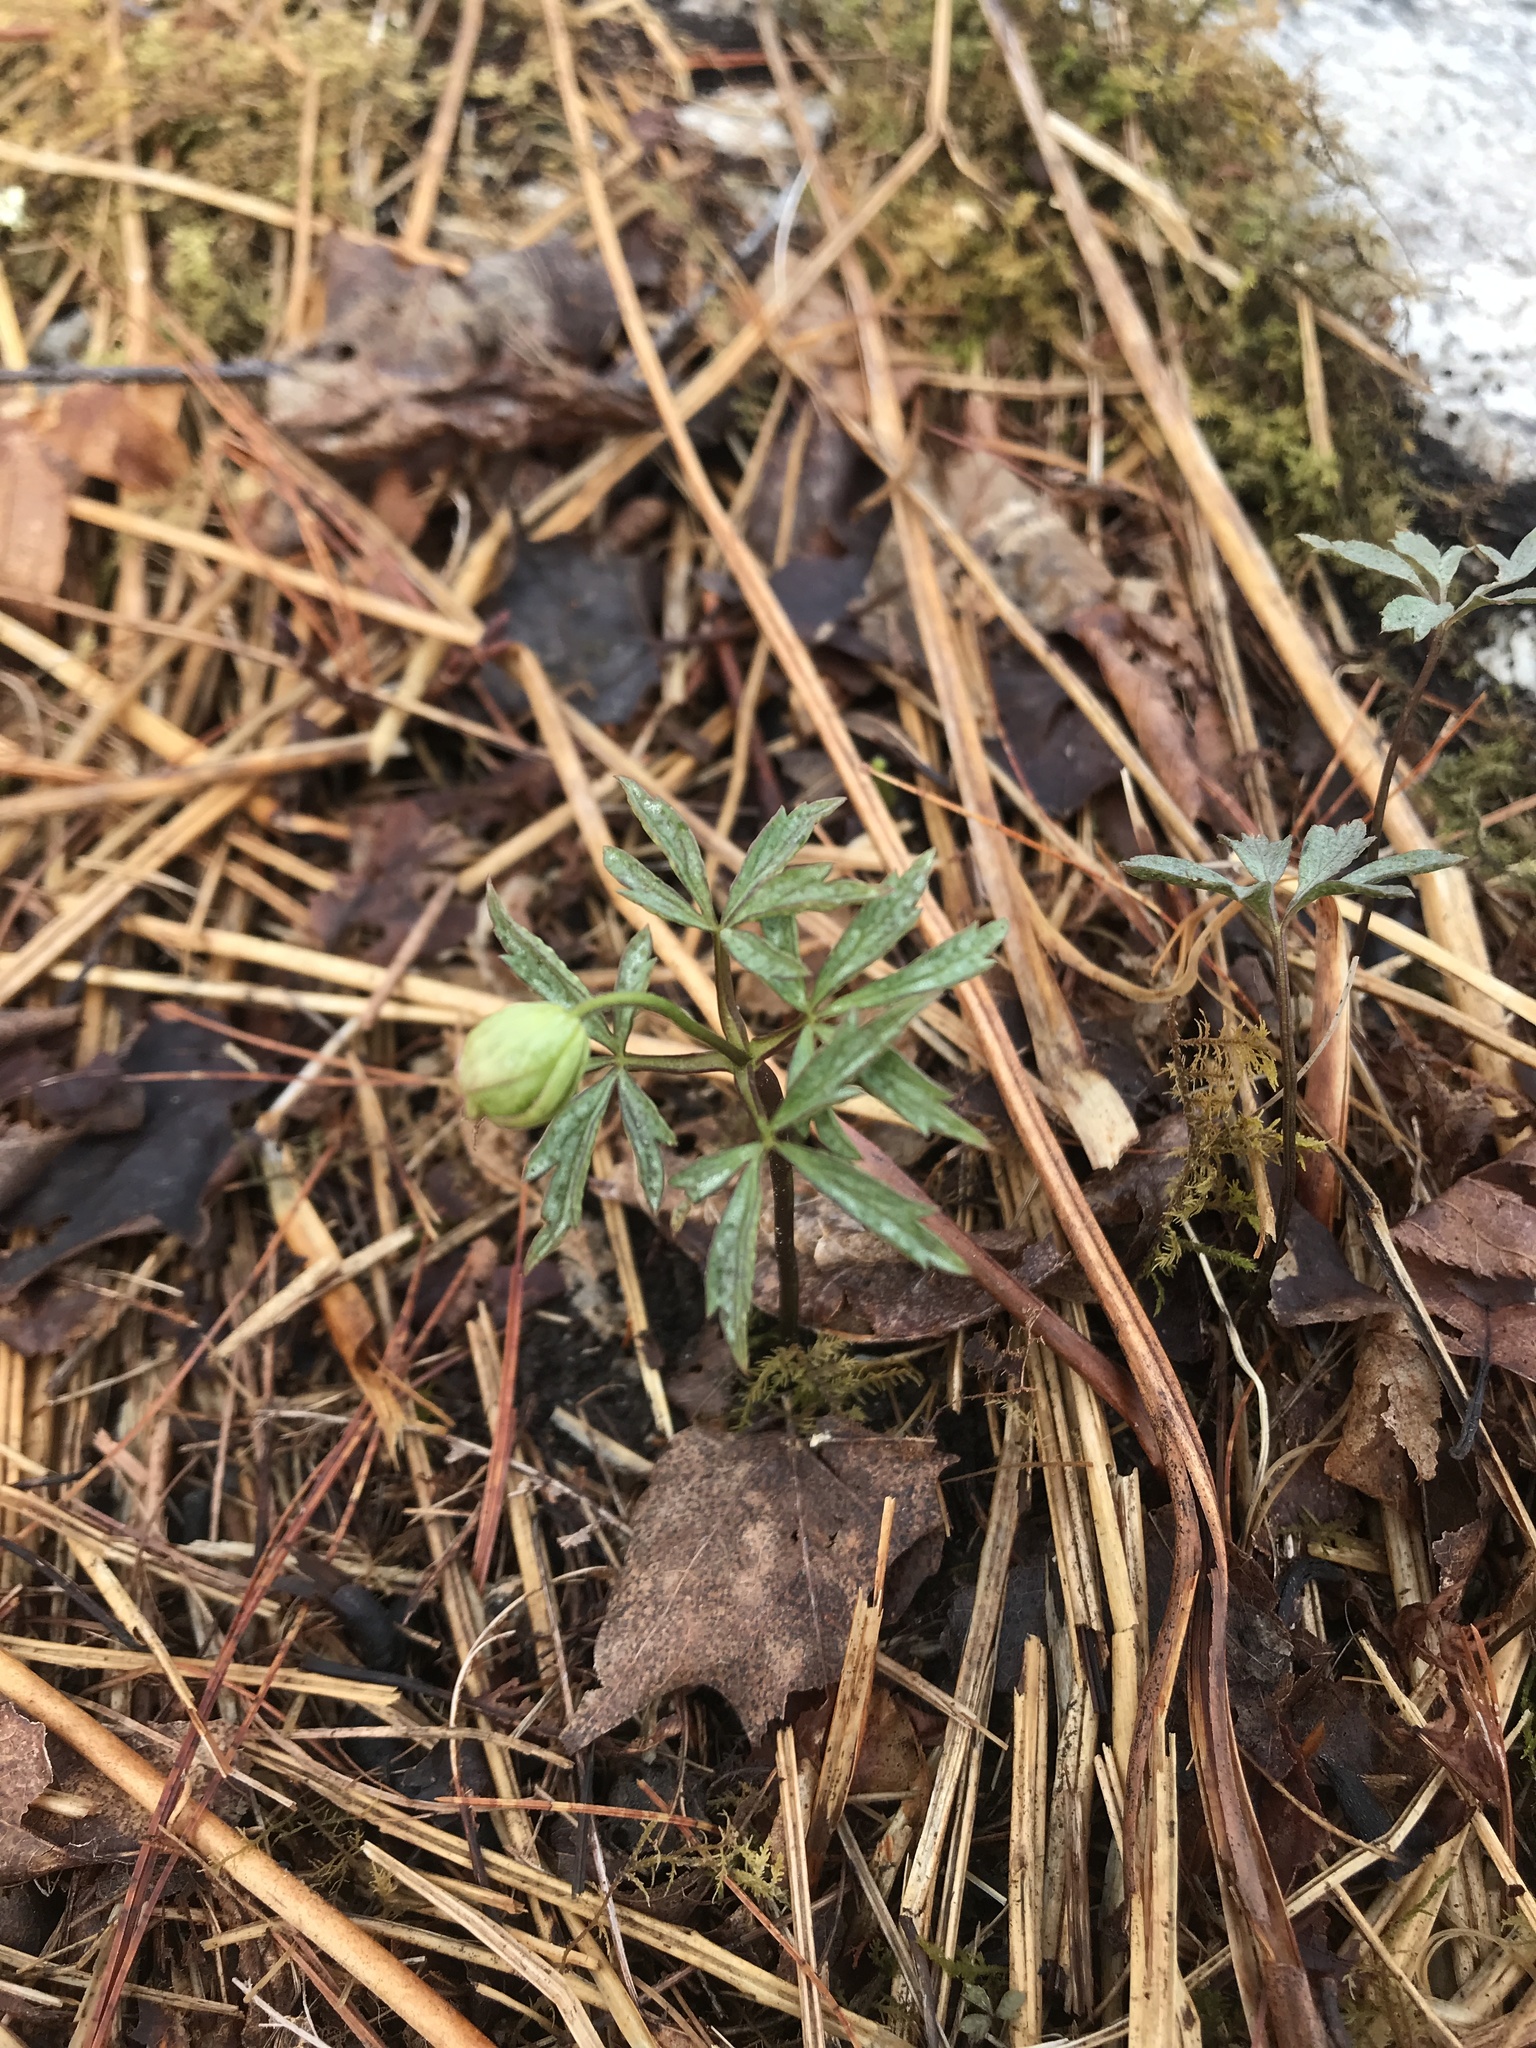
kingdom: Plantae
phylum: Tracheophyta
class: Magnoliopsida
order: Ranunculales
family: Ranunculaceae
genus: Anemone
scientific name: Anemone quinquefolia
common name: Wood anemone
